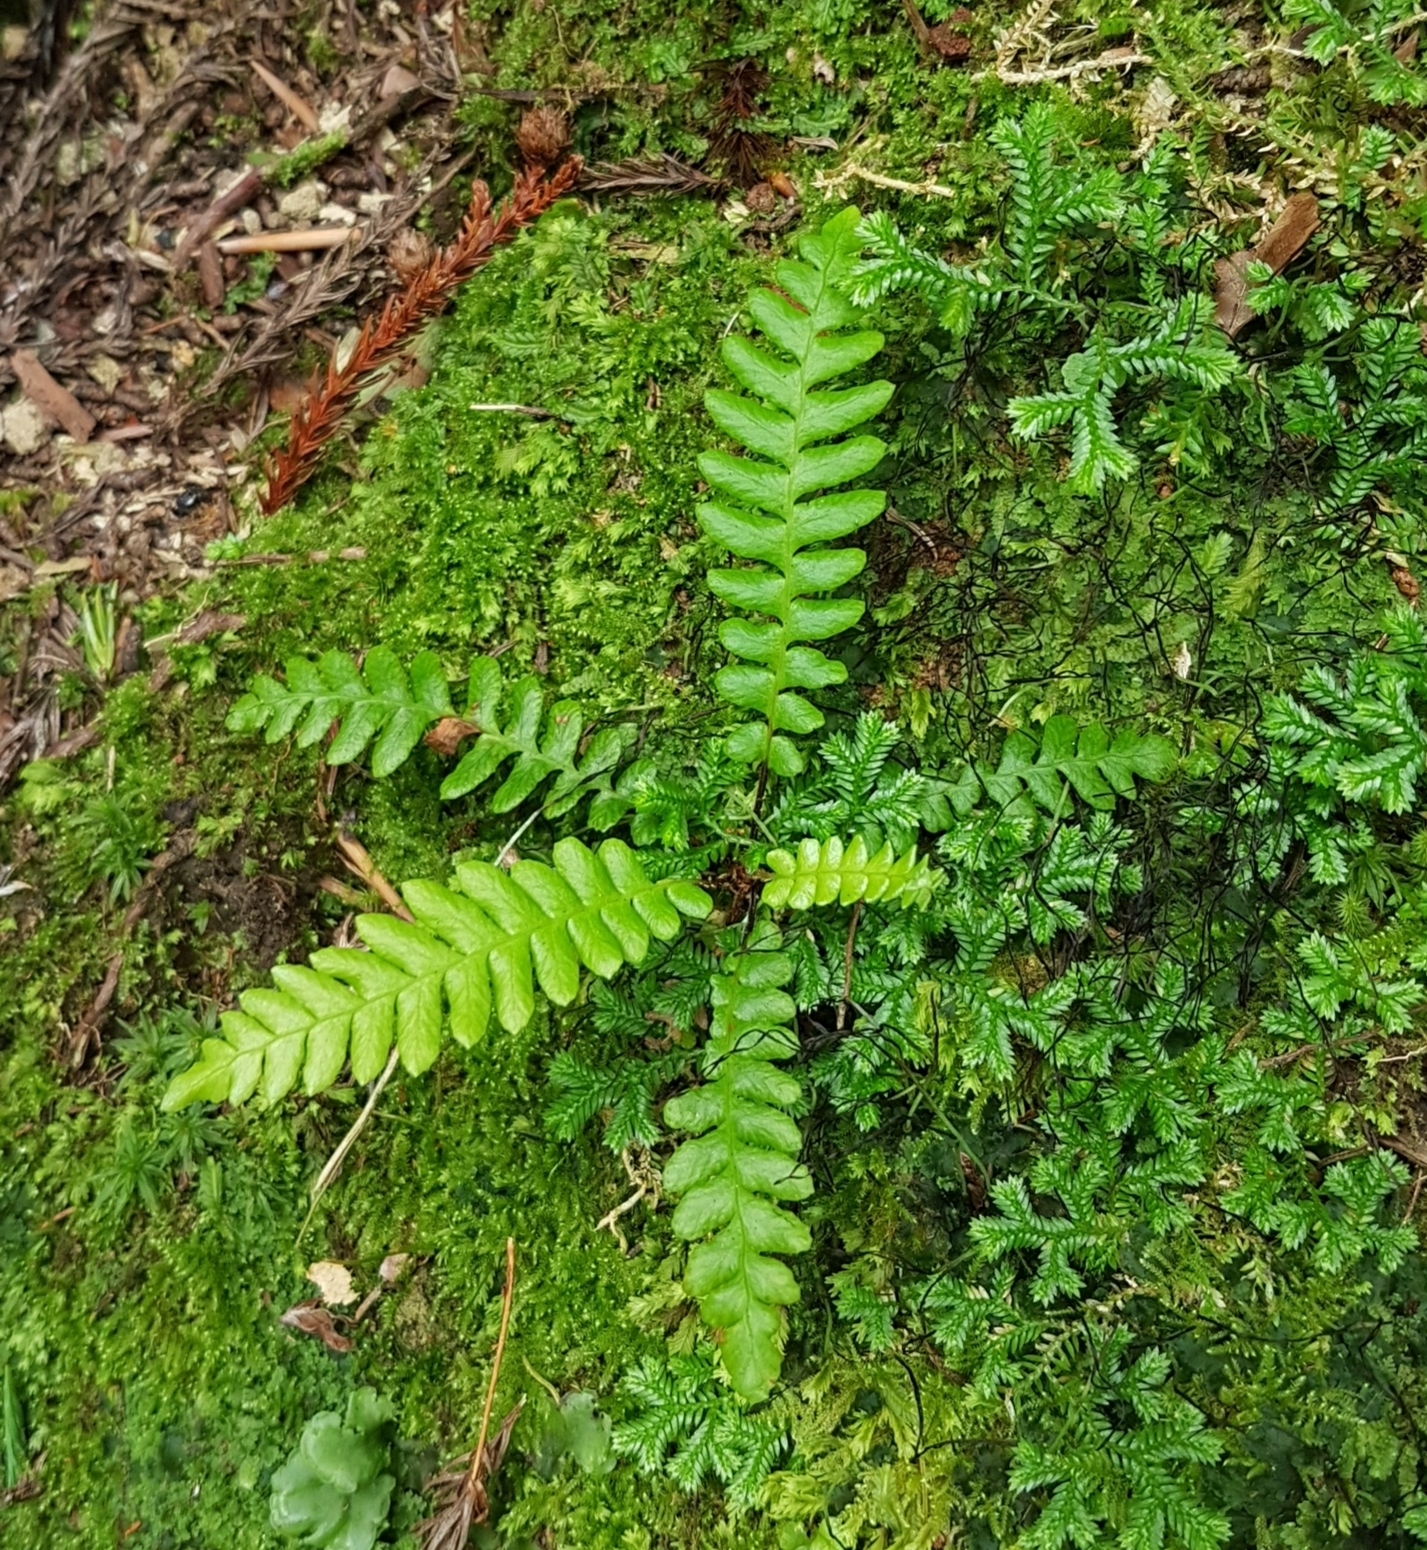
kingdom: Plantae
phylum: Tracheophyta
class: Polypodiopsida
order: Polypodiales
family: Blechnaceae
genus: Struthiopteris
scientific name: Struthiopteris spicant
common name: Deer fern
